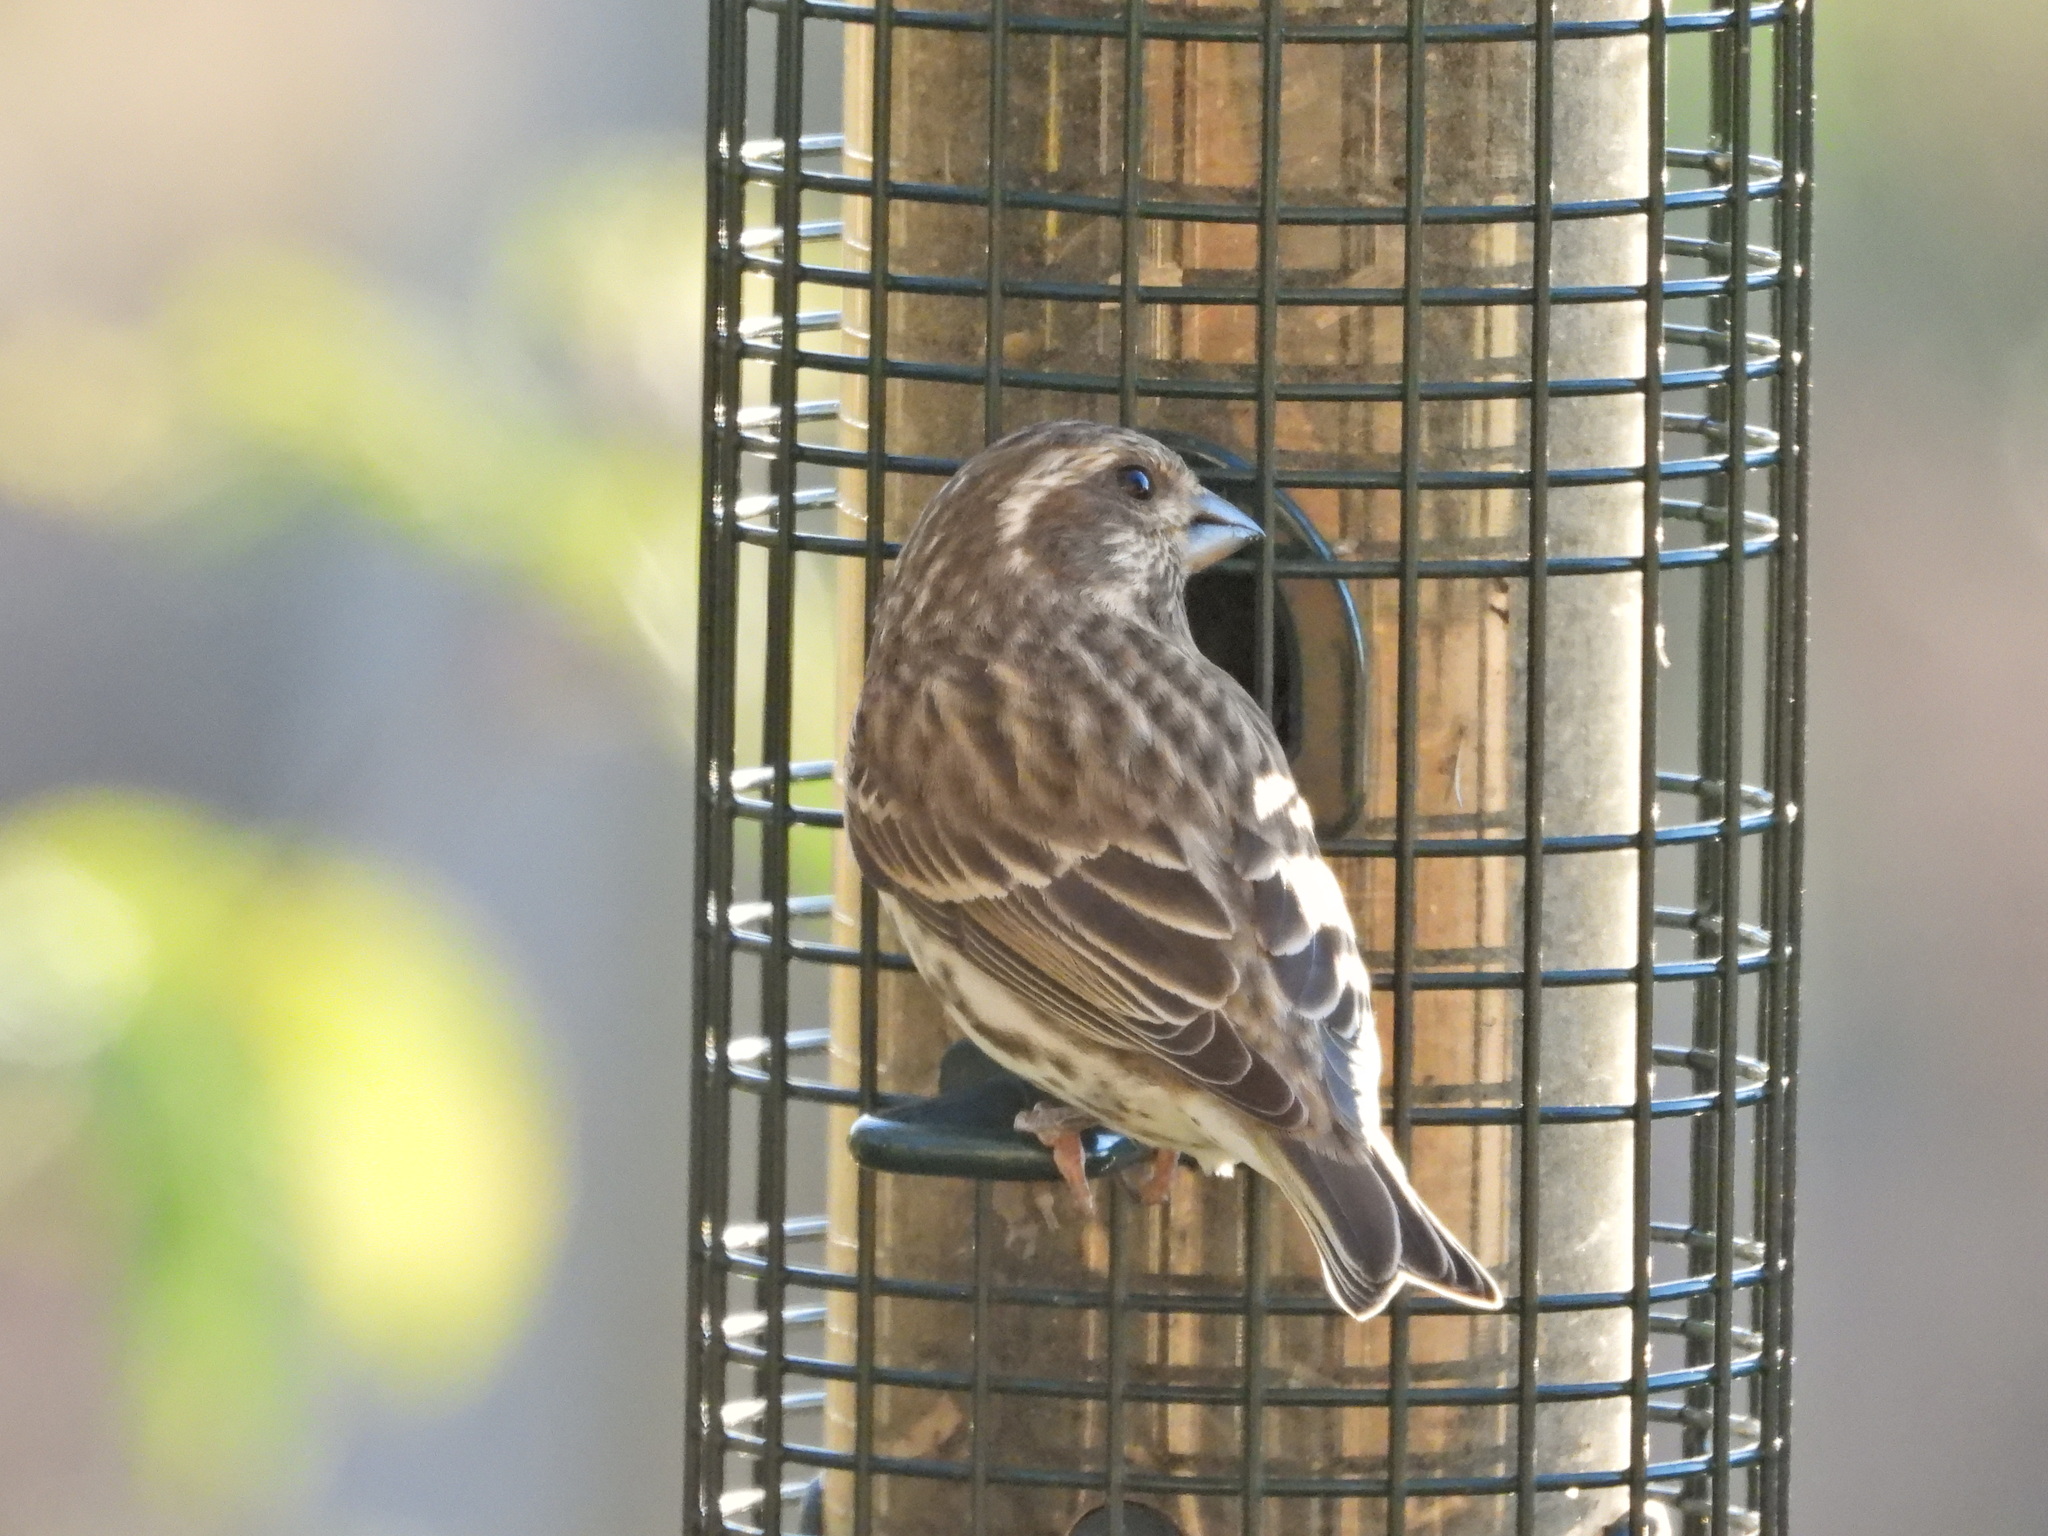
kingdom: Animalia
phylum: Chordata
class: Aves
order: Passeriformes
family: Fringillidae
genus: Haemorhous
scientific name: Haemorhous purpureus
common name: Purple finch
